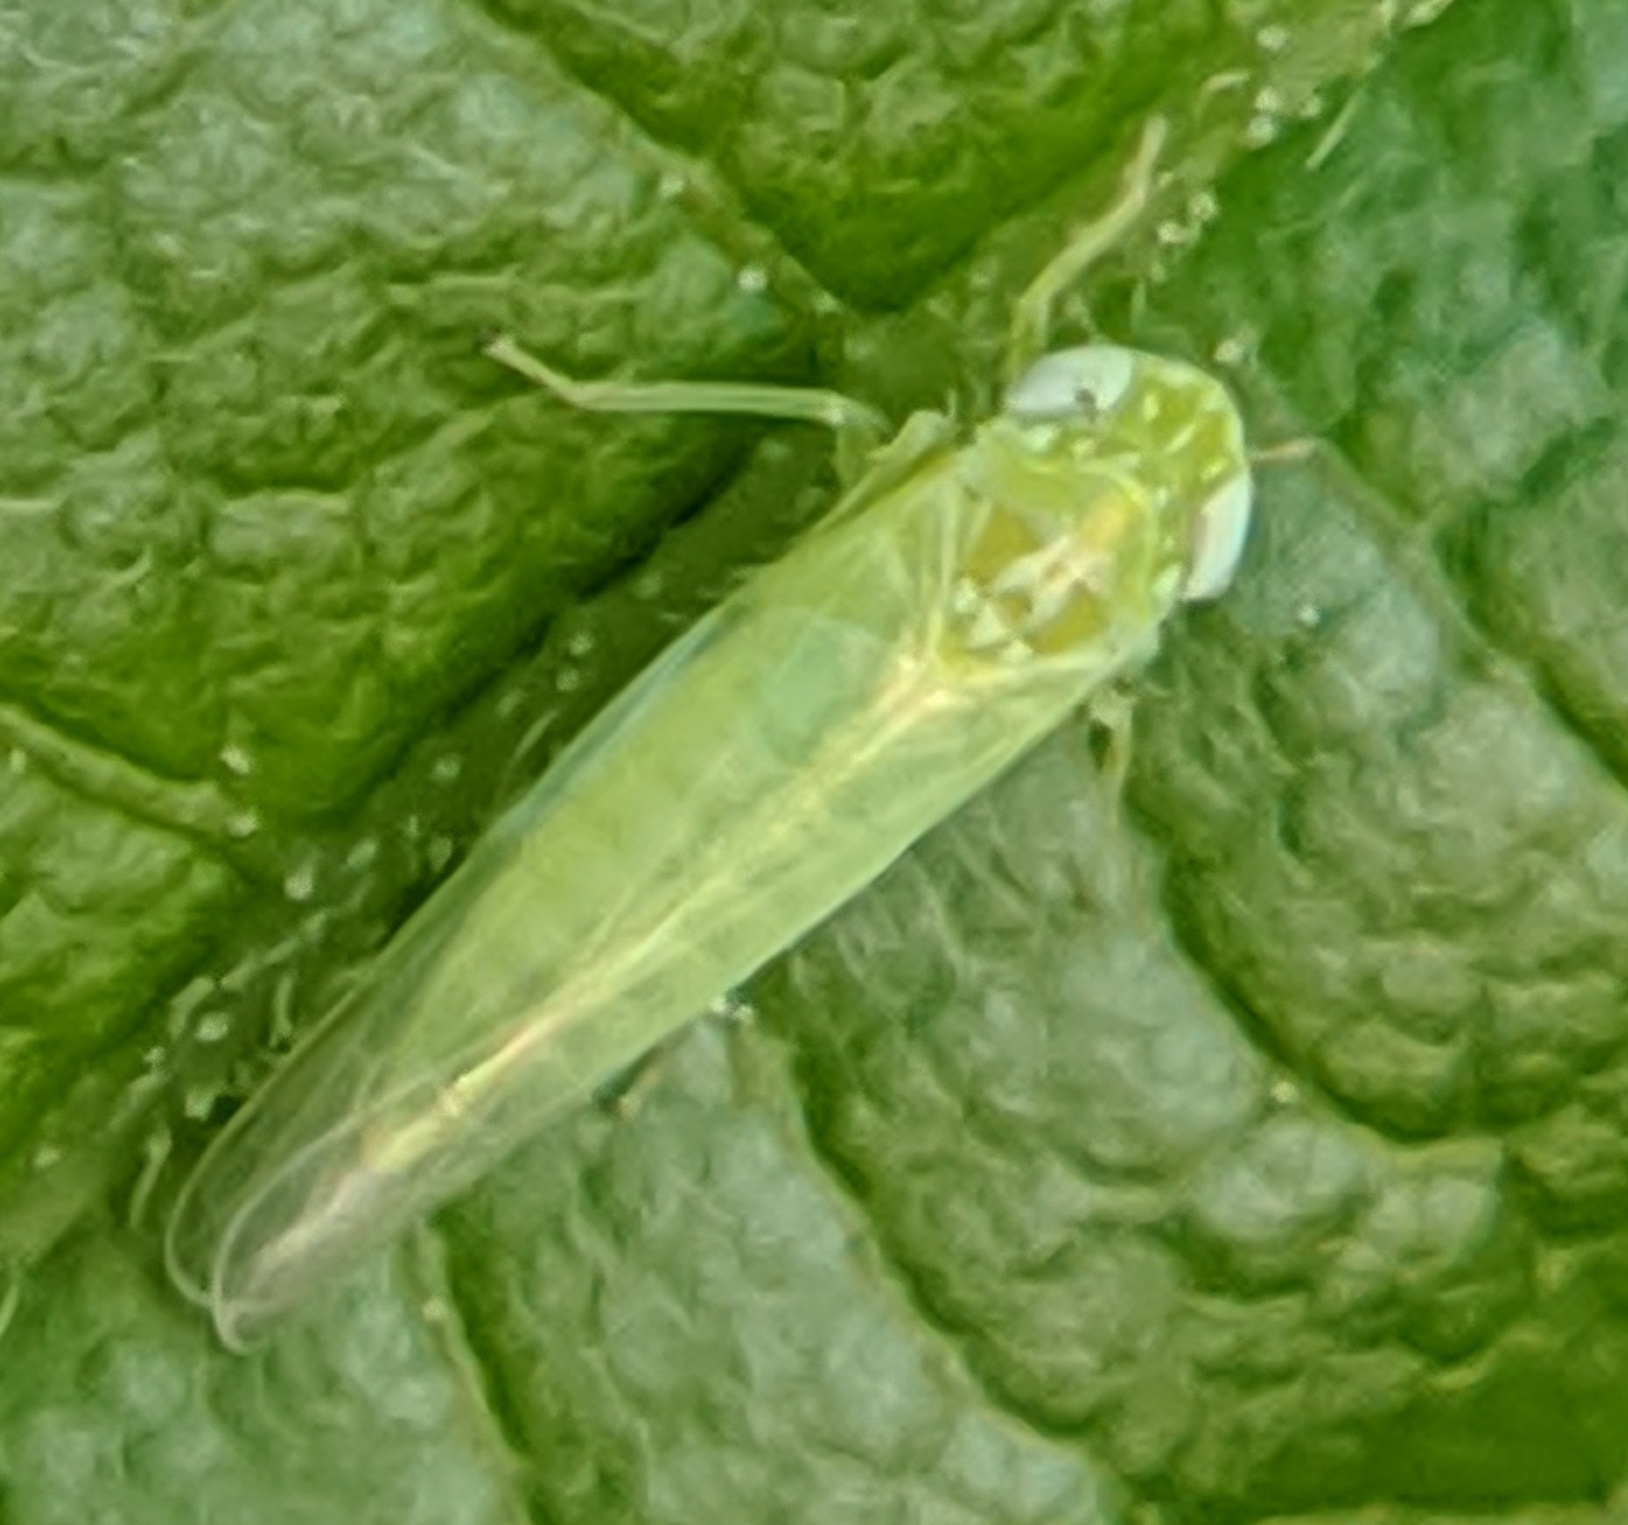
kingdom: Animalia
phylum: Arthropoda
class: Insecta
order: Hemiptera
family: Cicadellidae
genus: Empoasca
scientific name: Empoasca fabae
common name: Potato leafhopper
